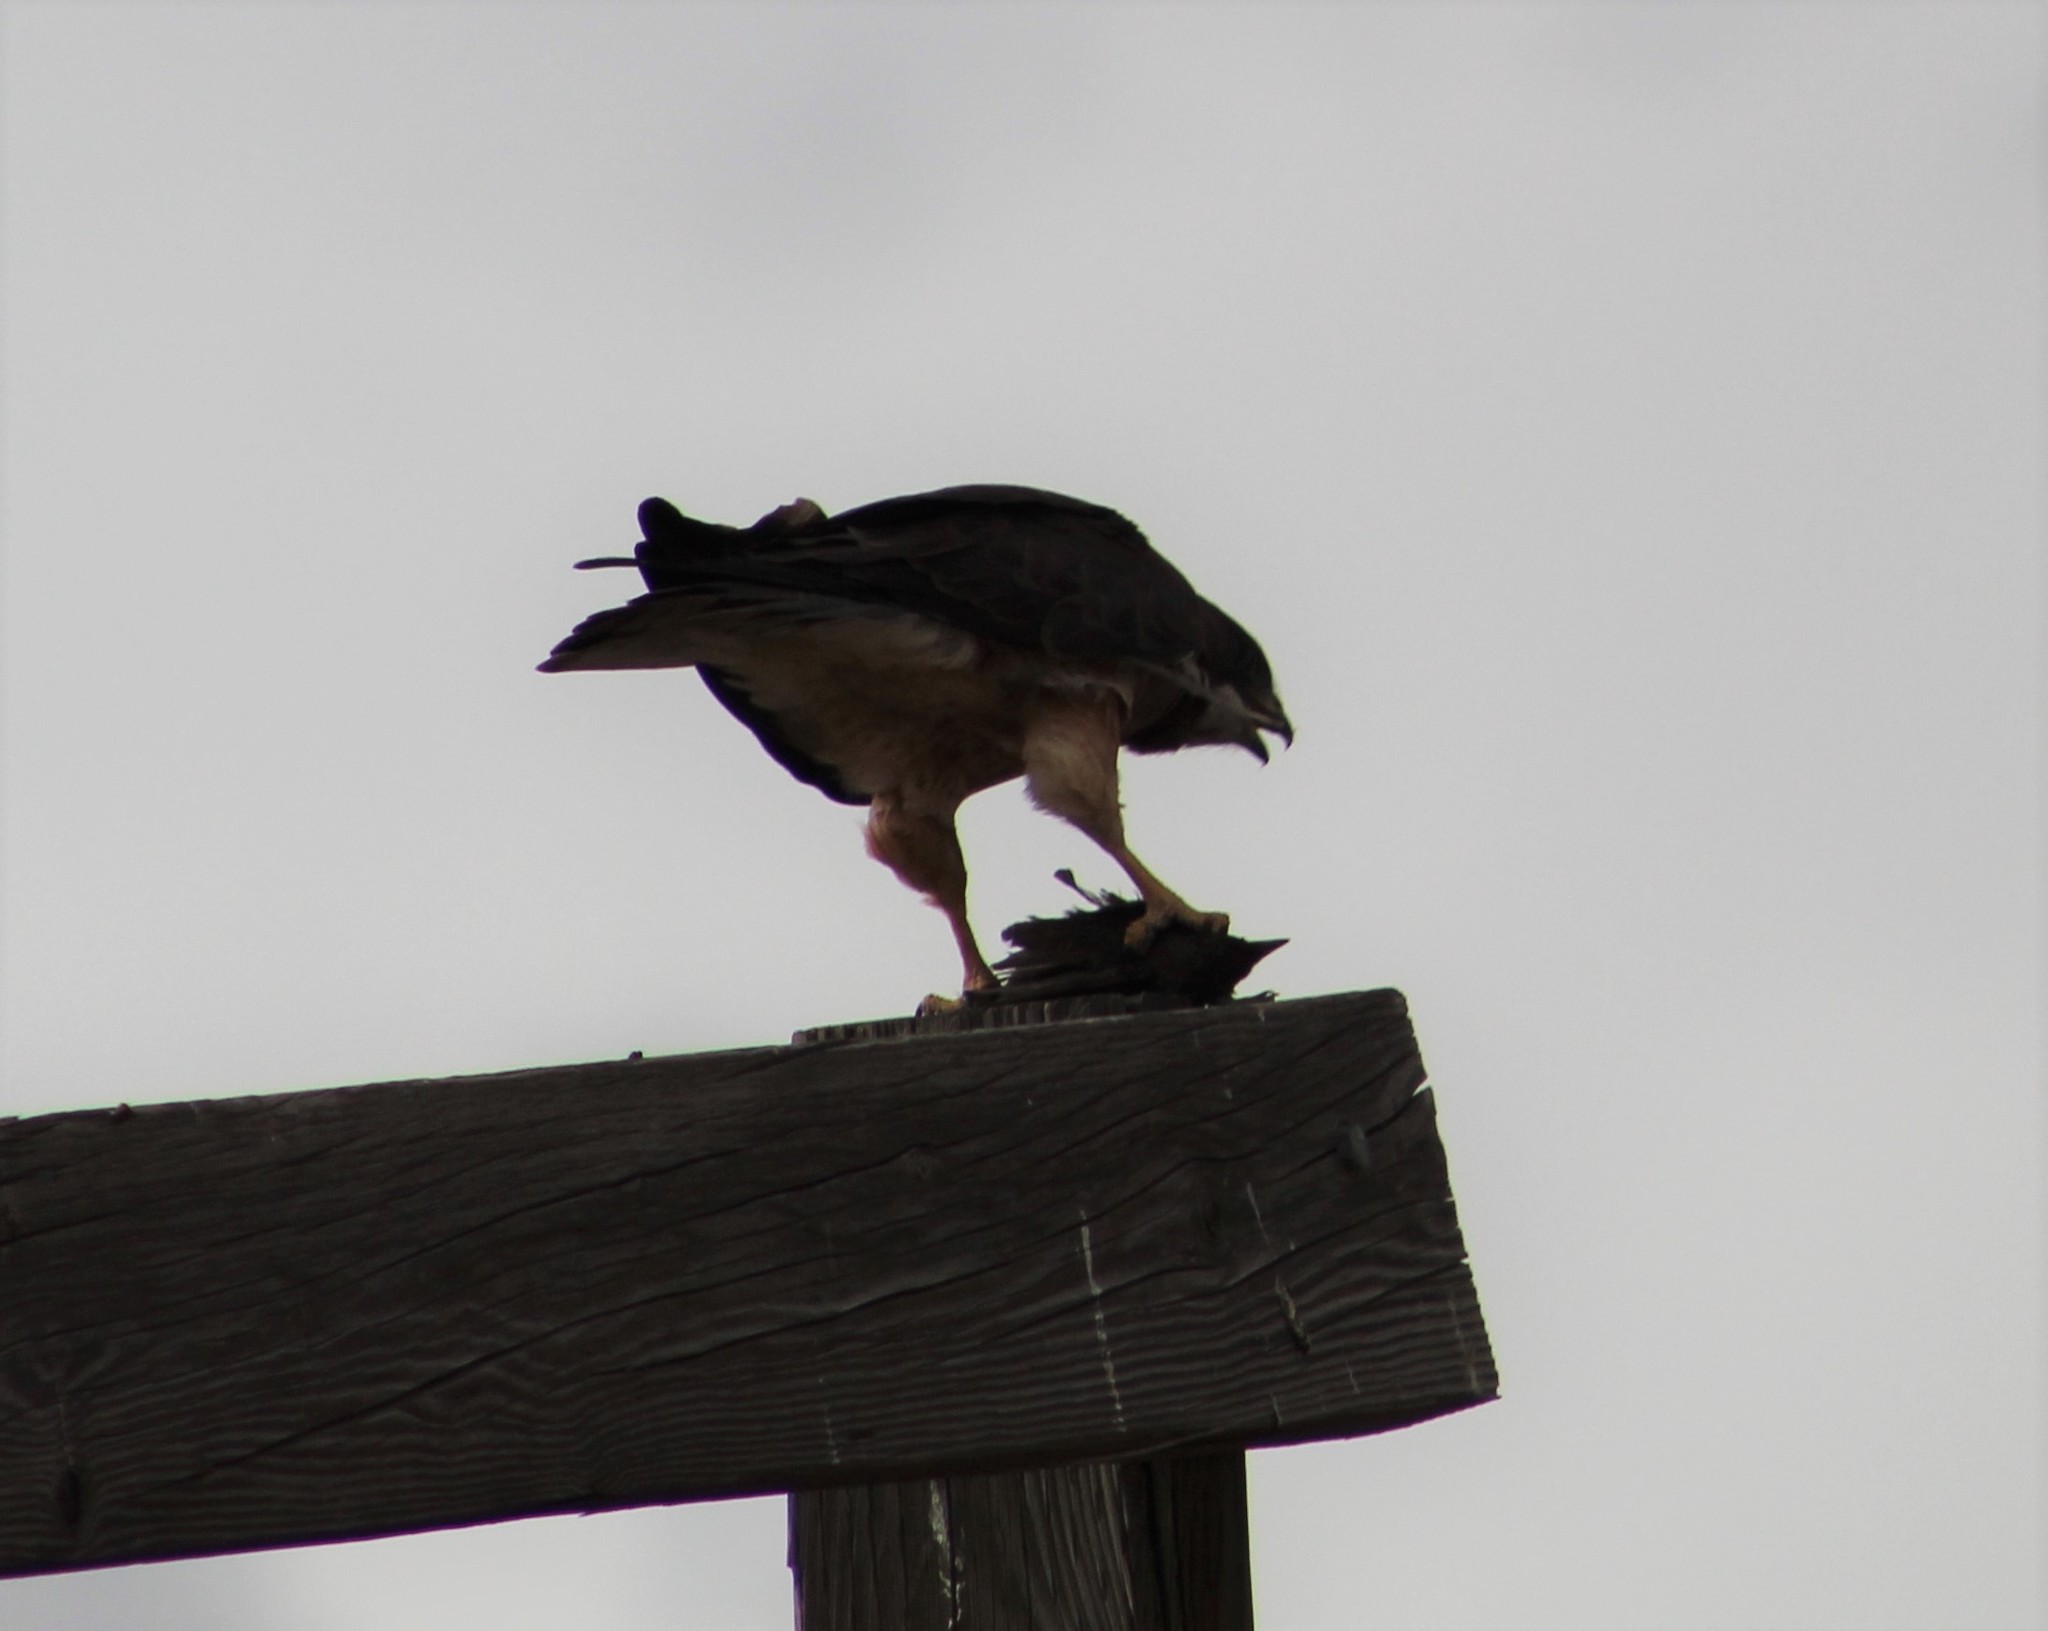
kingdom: Animalia
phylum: Chordata
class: Aves
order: Accipitriformes
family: Accipitridae
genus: Buteo
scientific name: Buteo swainsoni
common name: Swainson's hawk
